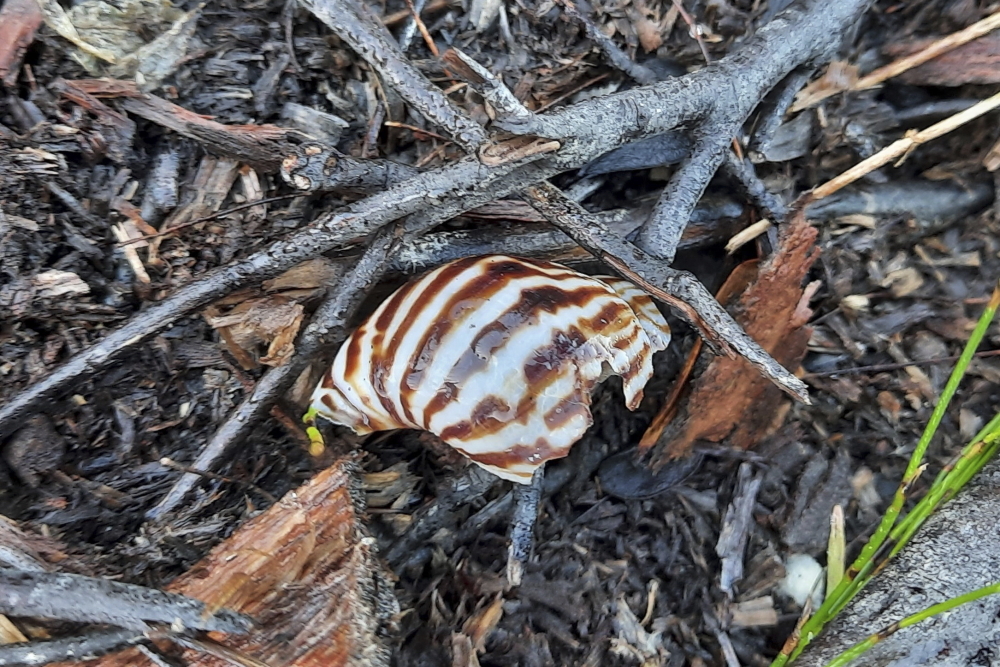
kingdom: Animalia
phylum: Mollusca
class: Gastropoda
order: Stylommatophora
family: Achatinidae
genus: Cochlitoma
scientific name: Cochlitoma zebra
